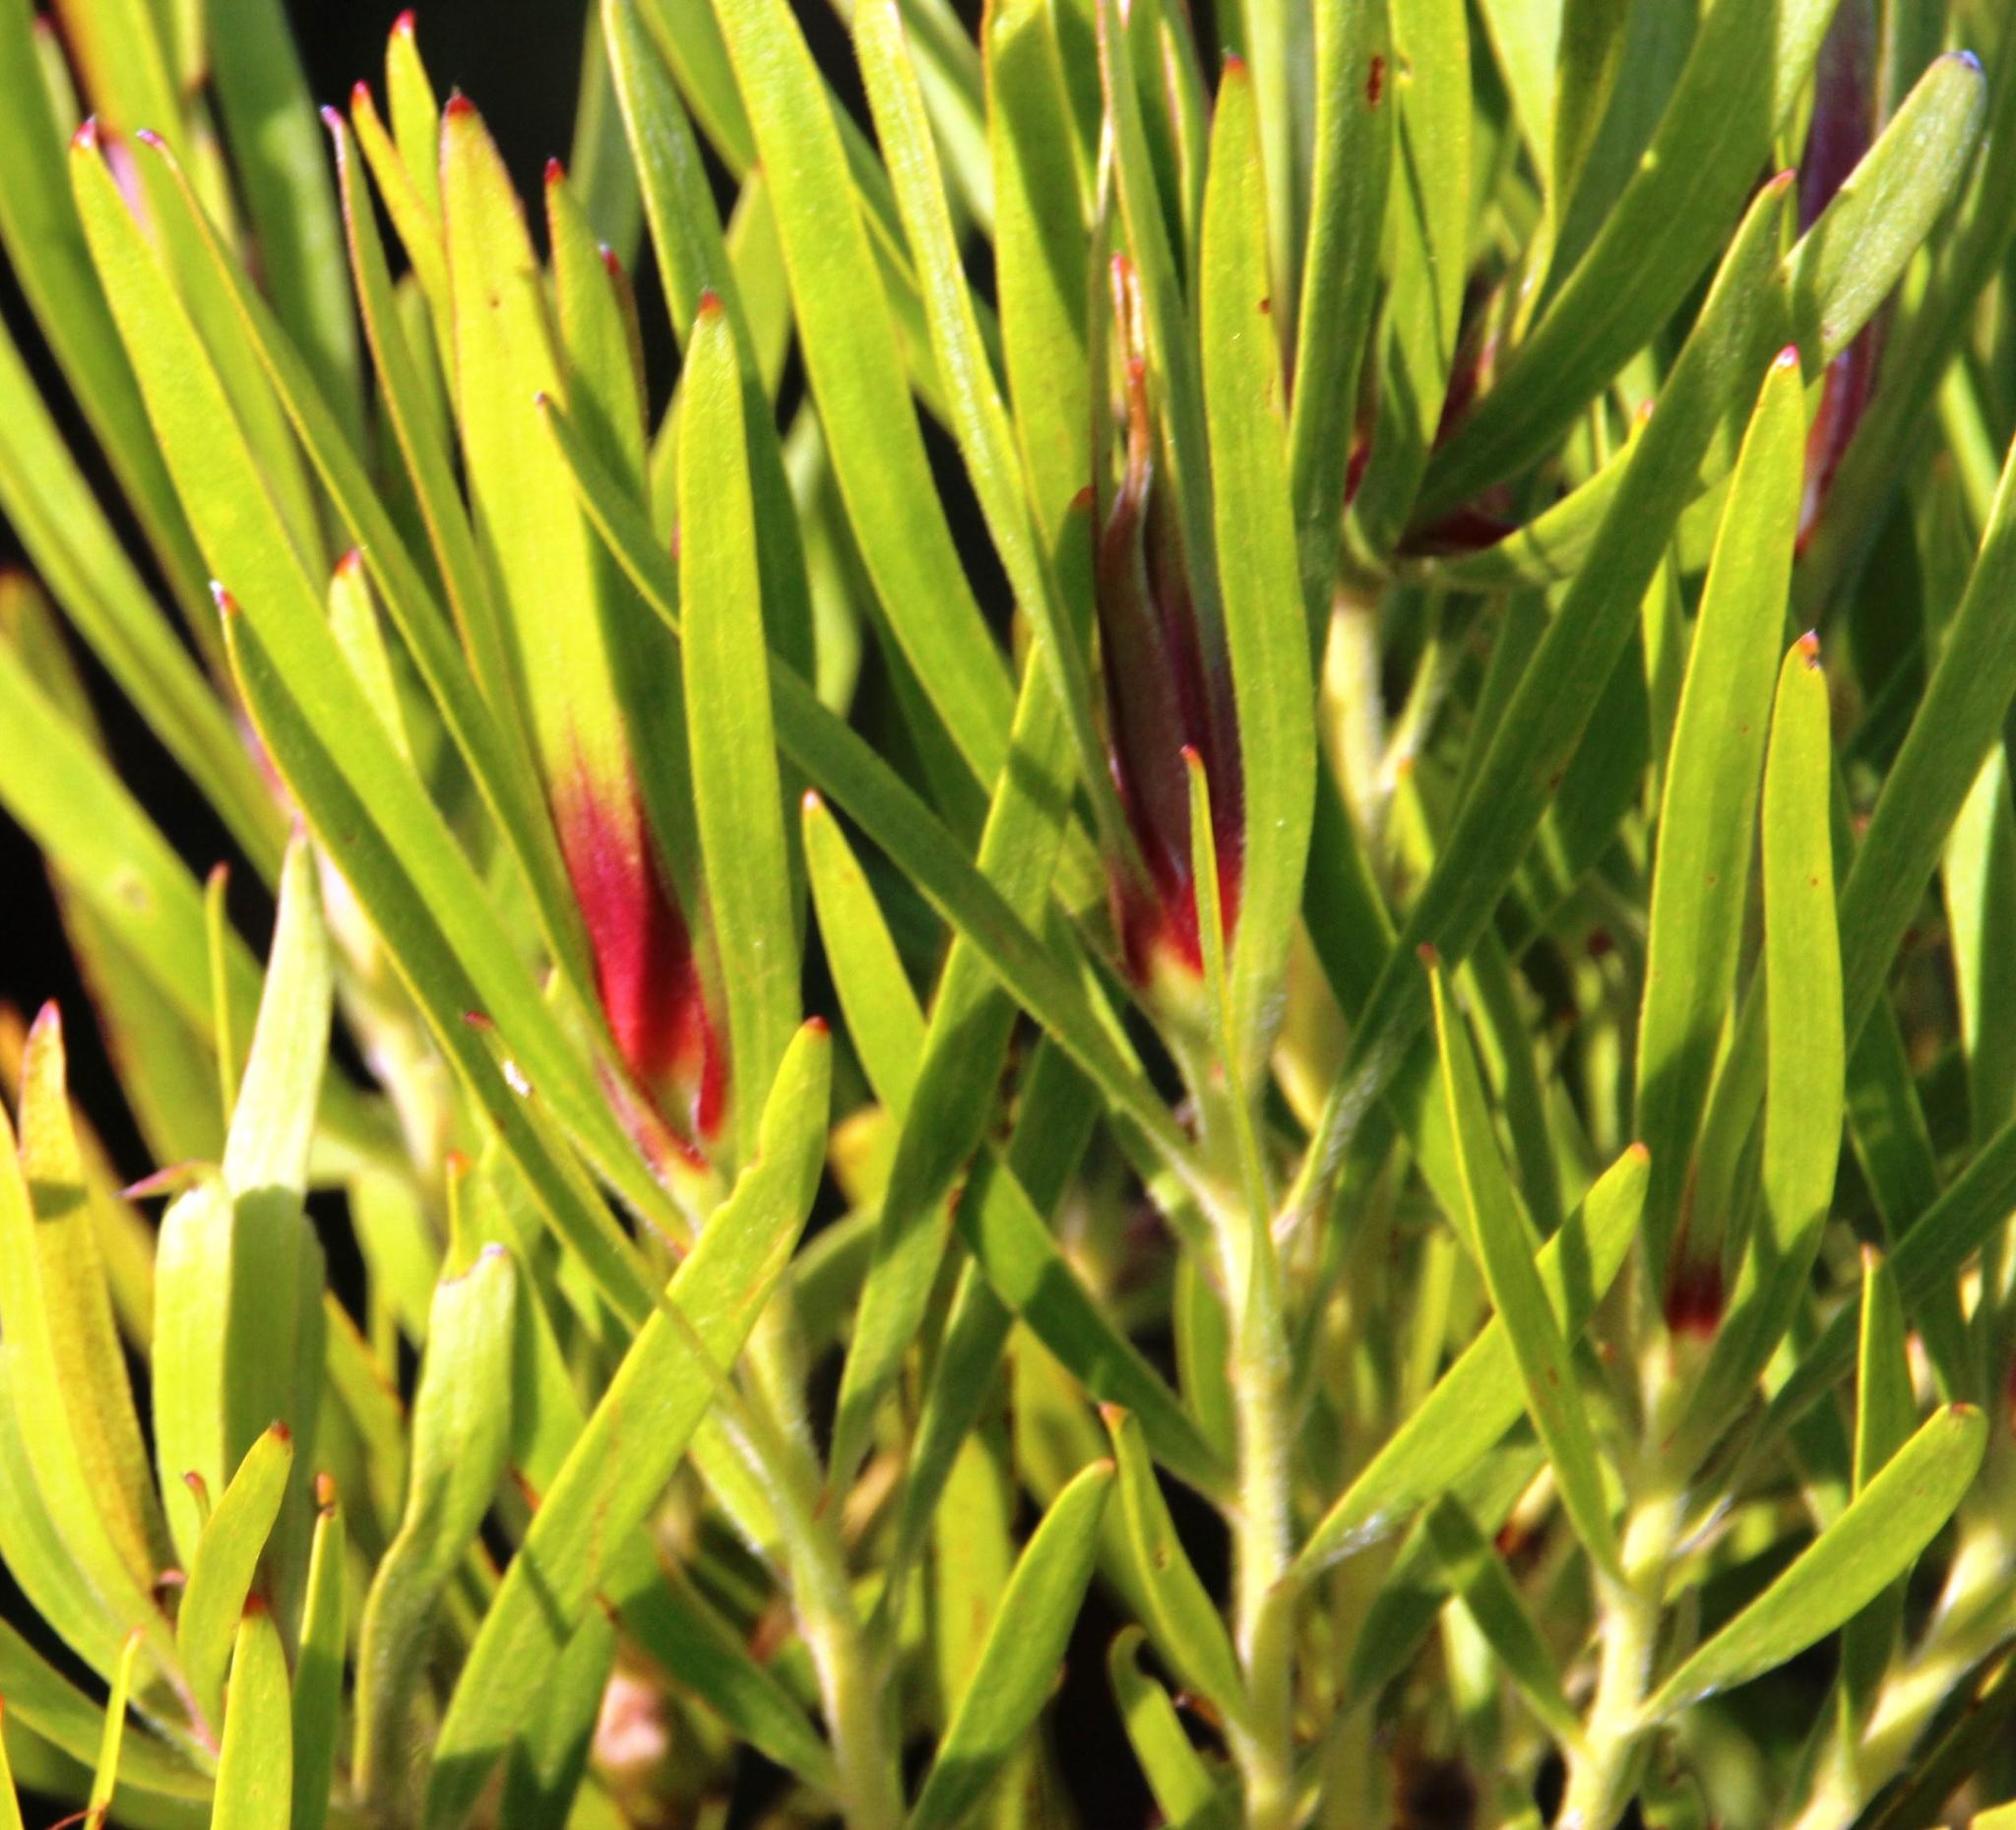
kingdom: Plantae
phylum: Tracheophyta
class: Magnoliopsida
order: Proteales
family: Proteaceae
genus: Leucadendron
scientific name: Leucadendron eucalyptifolium
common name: Gum-leaved conebush
